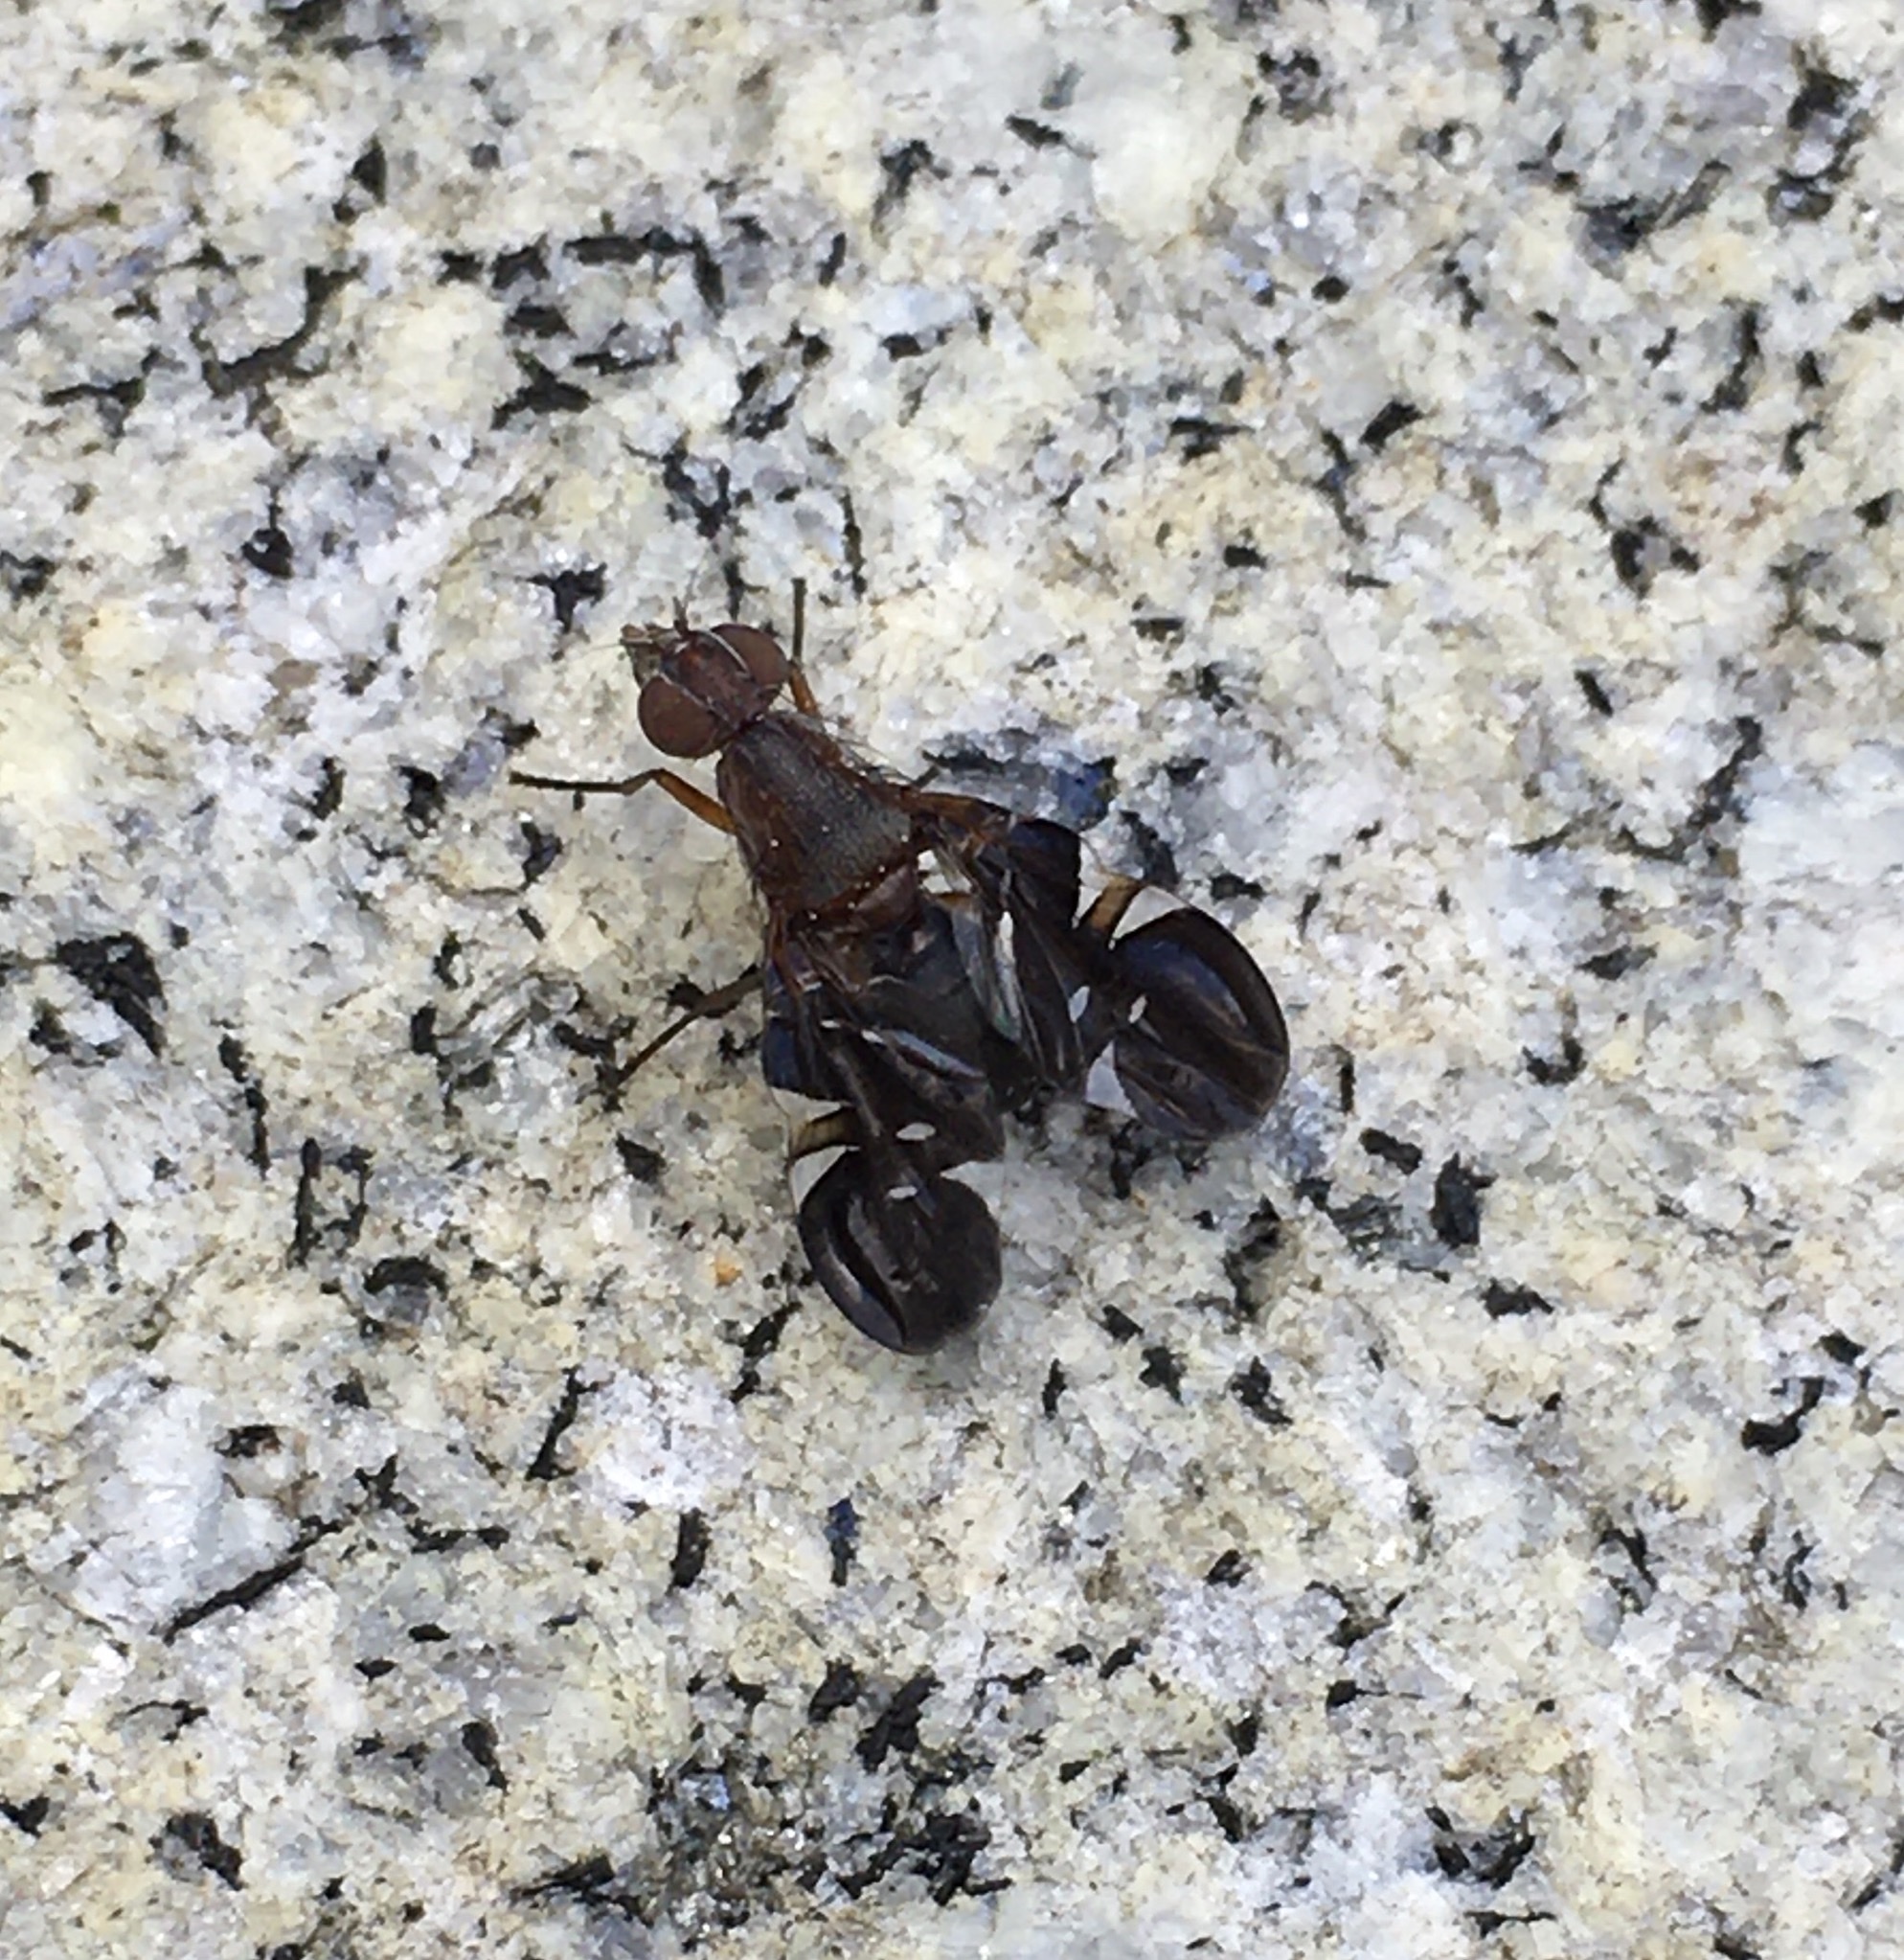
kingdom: Animalia
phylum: Arthropoda
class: Insecta
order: Diptera
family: Ulidiidae
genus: Delphinia
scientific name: Delphinia picta
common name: Common picture-winged fly
